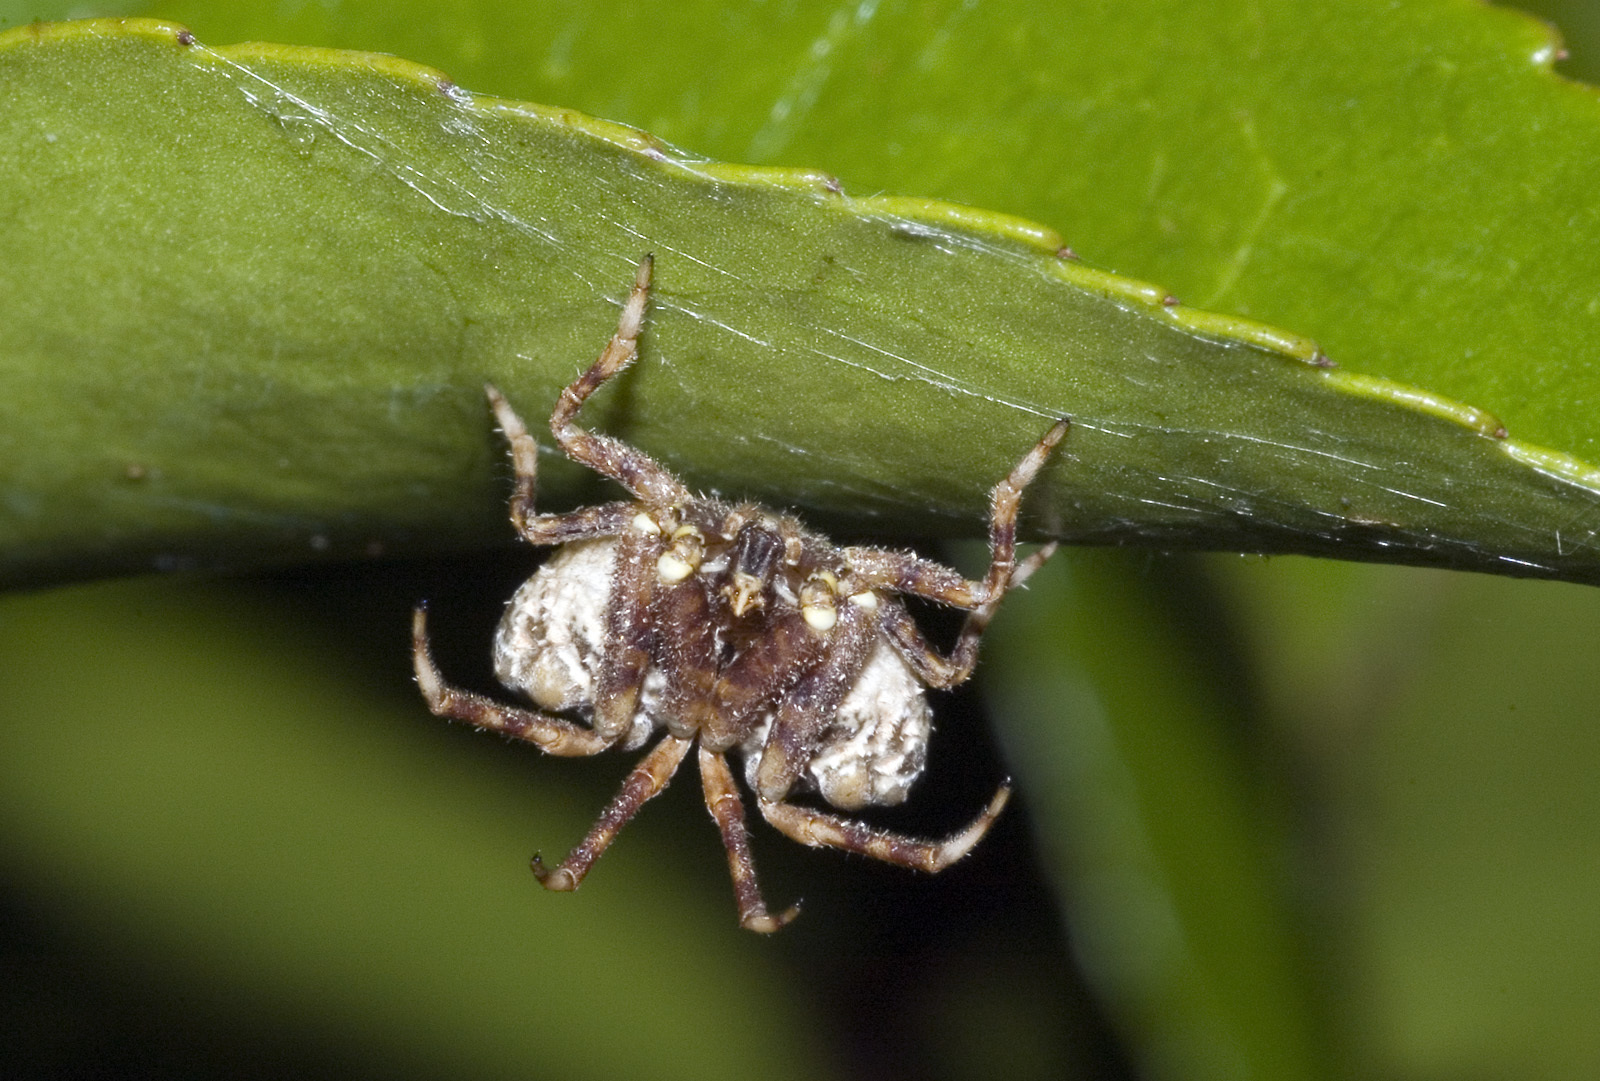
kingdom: Animalia
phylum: Arthropoda
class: Arachnida
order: Araneae
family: Araneidae
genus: Celaenia
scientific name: Celaenia tuberosa
